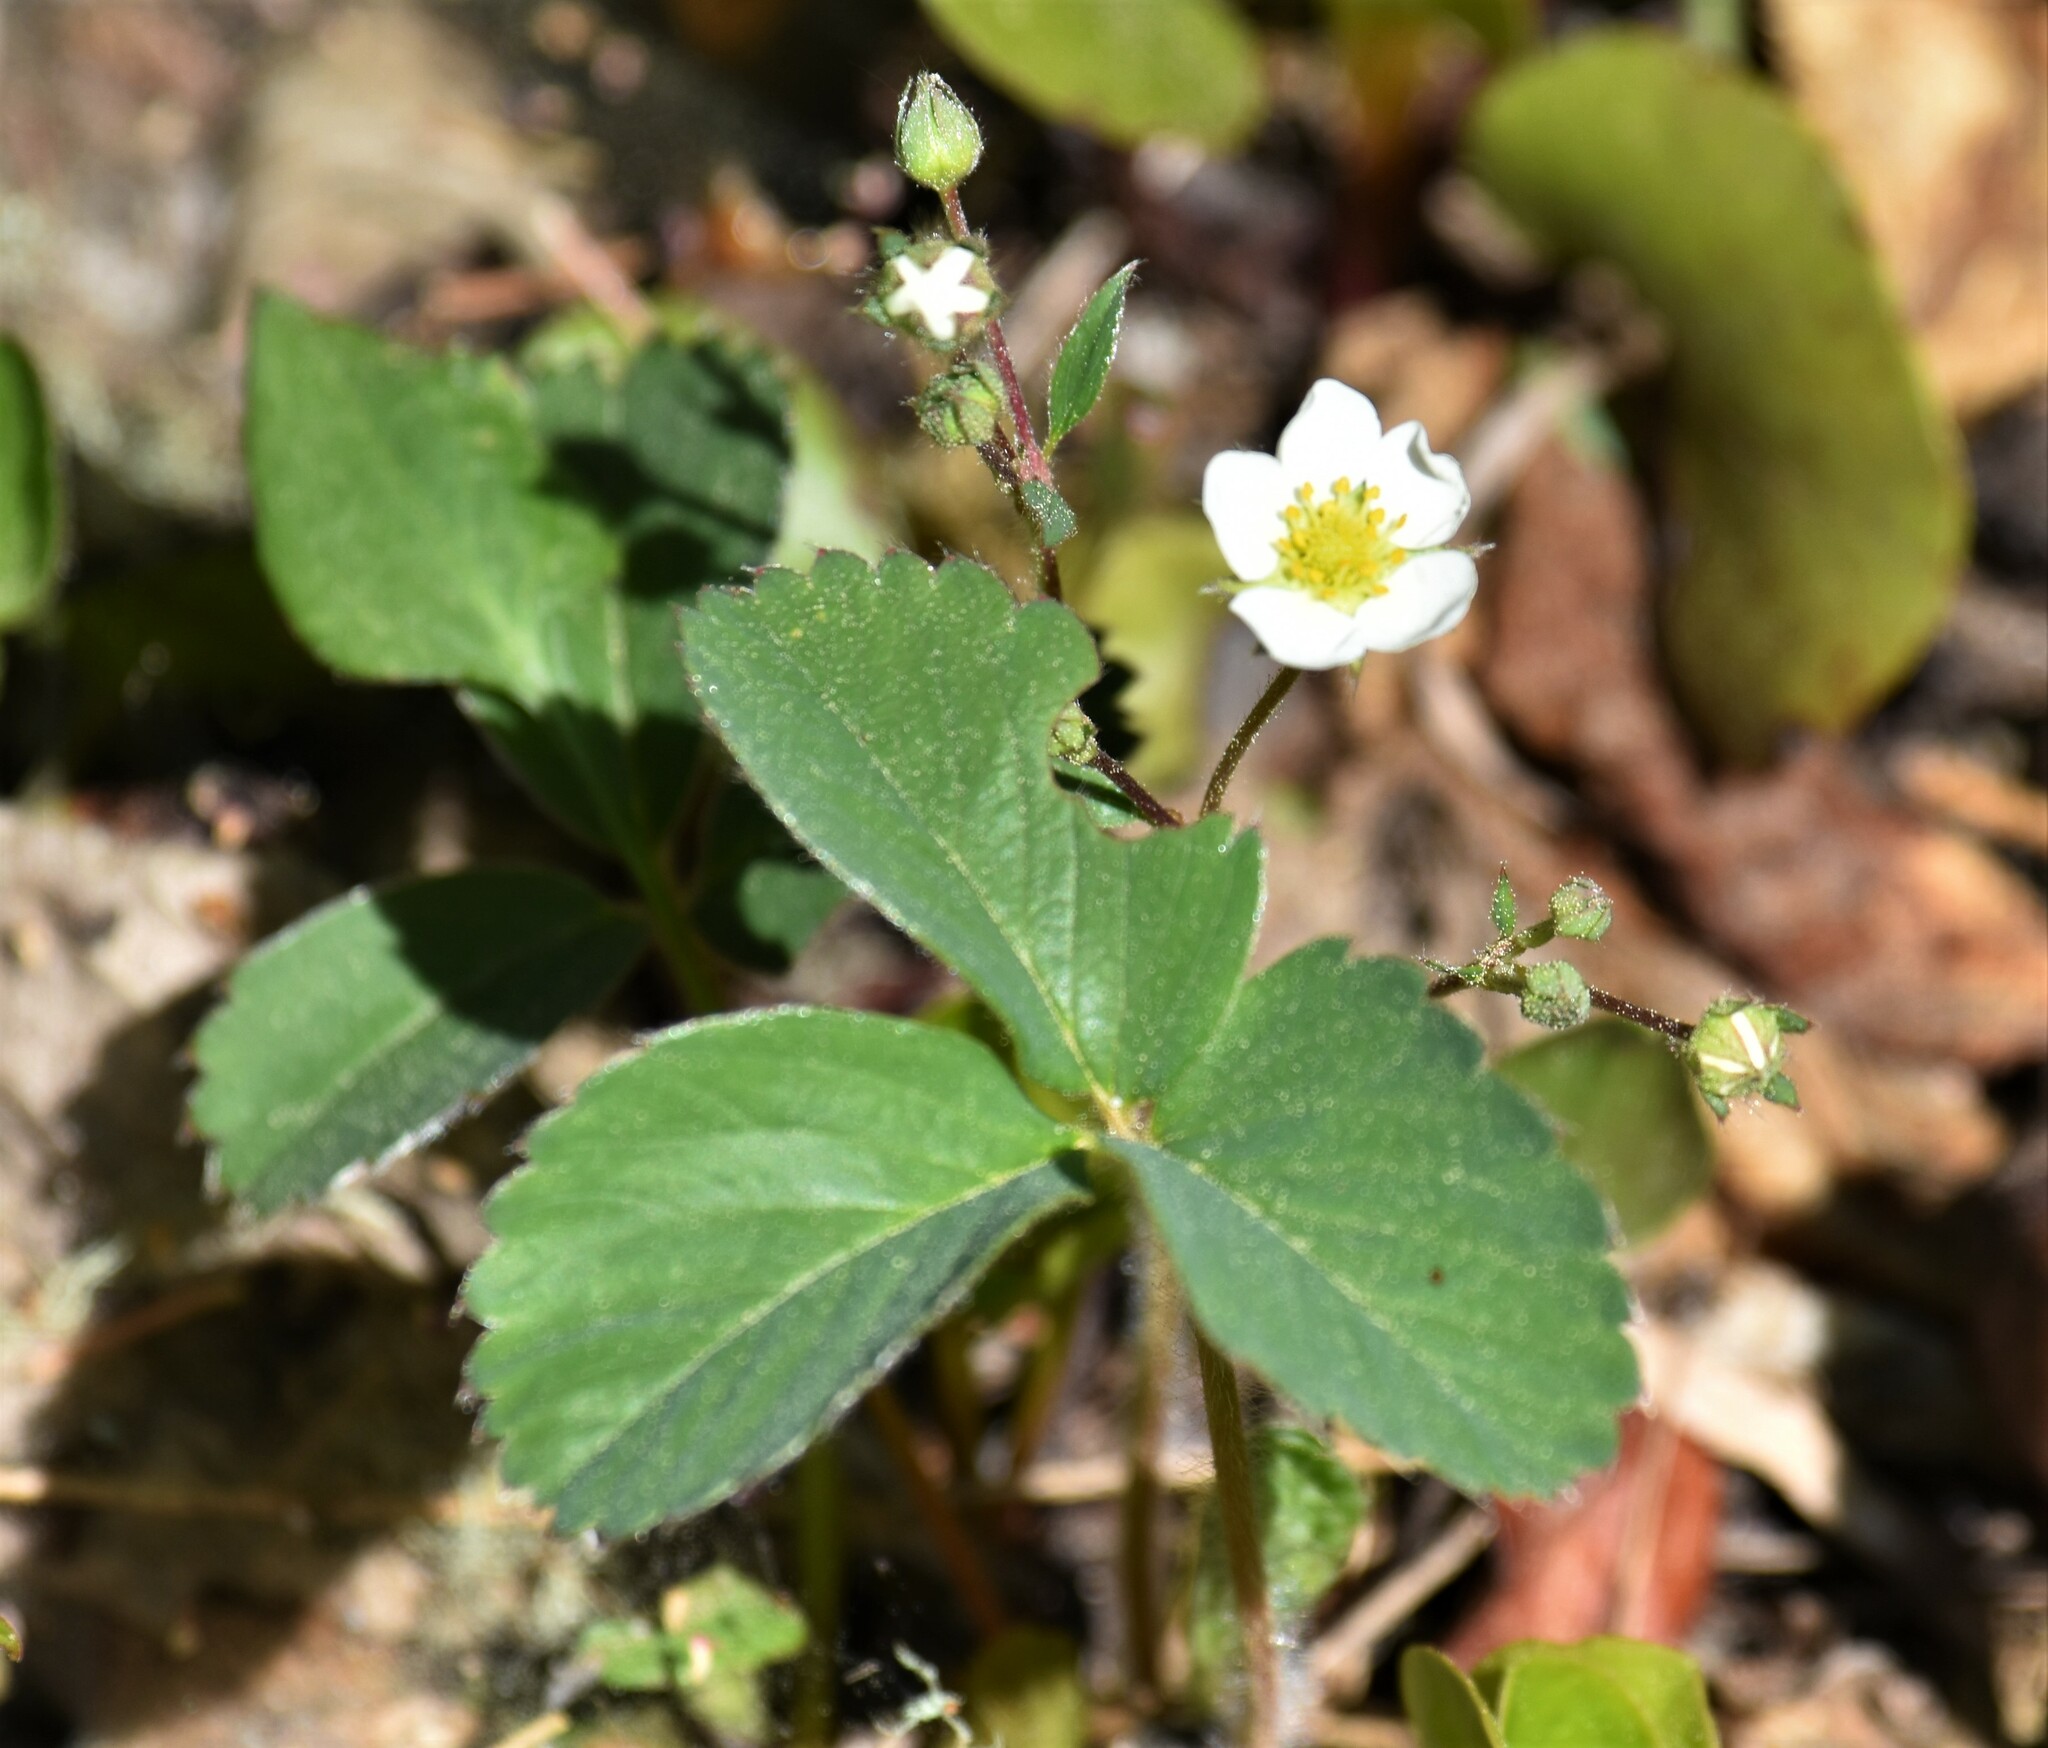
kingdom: Plantae
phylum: Tracheophyta
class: Magnoliopsida
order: Rosales
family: Rosaceae
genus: Fragaria
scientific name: Fragaria virginiana
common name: Thickleaved wild strawberry
